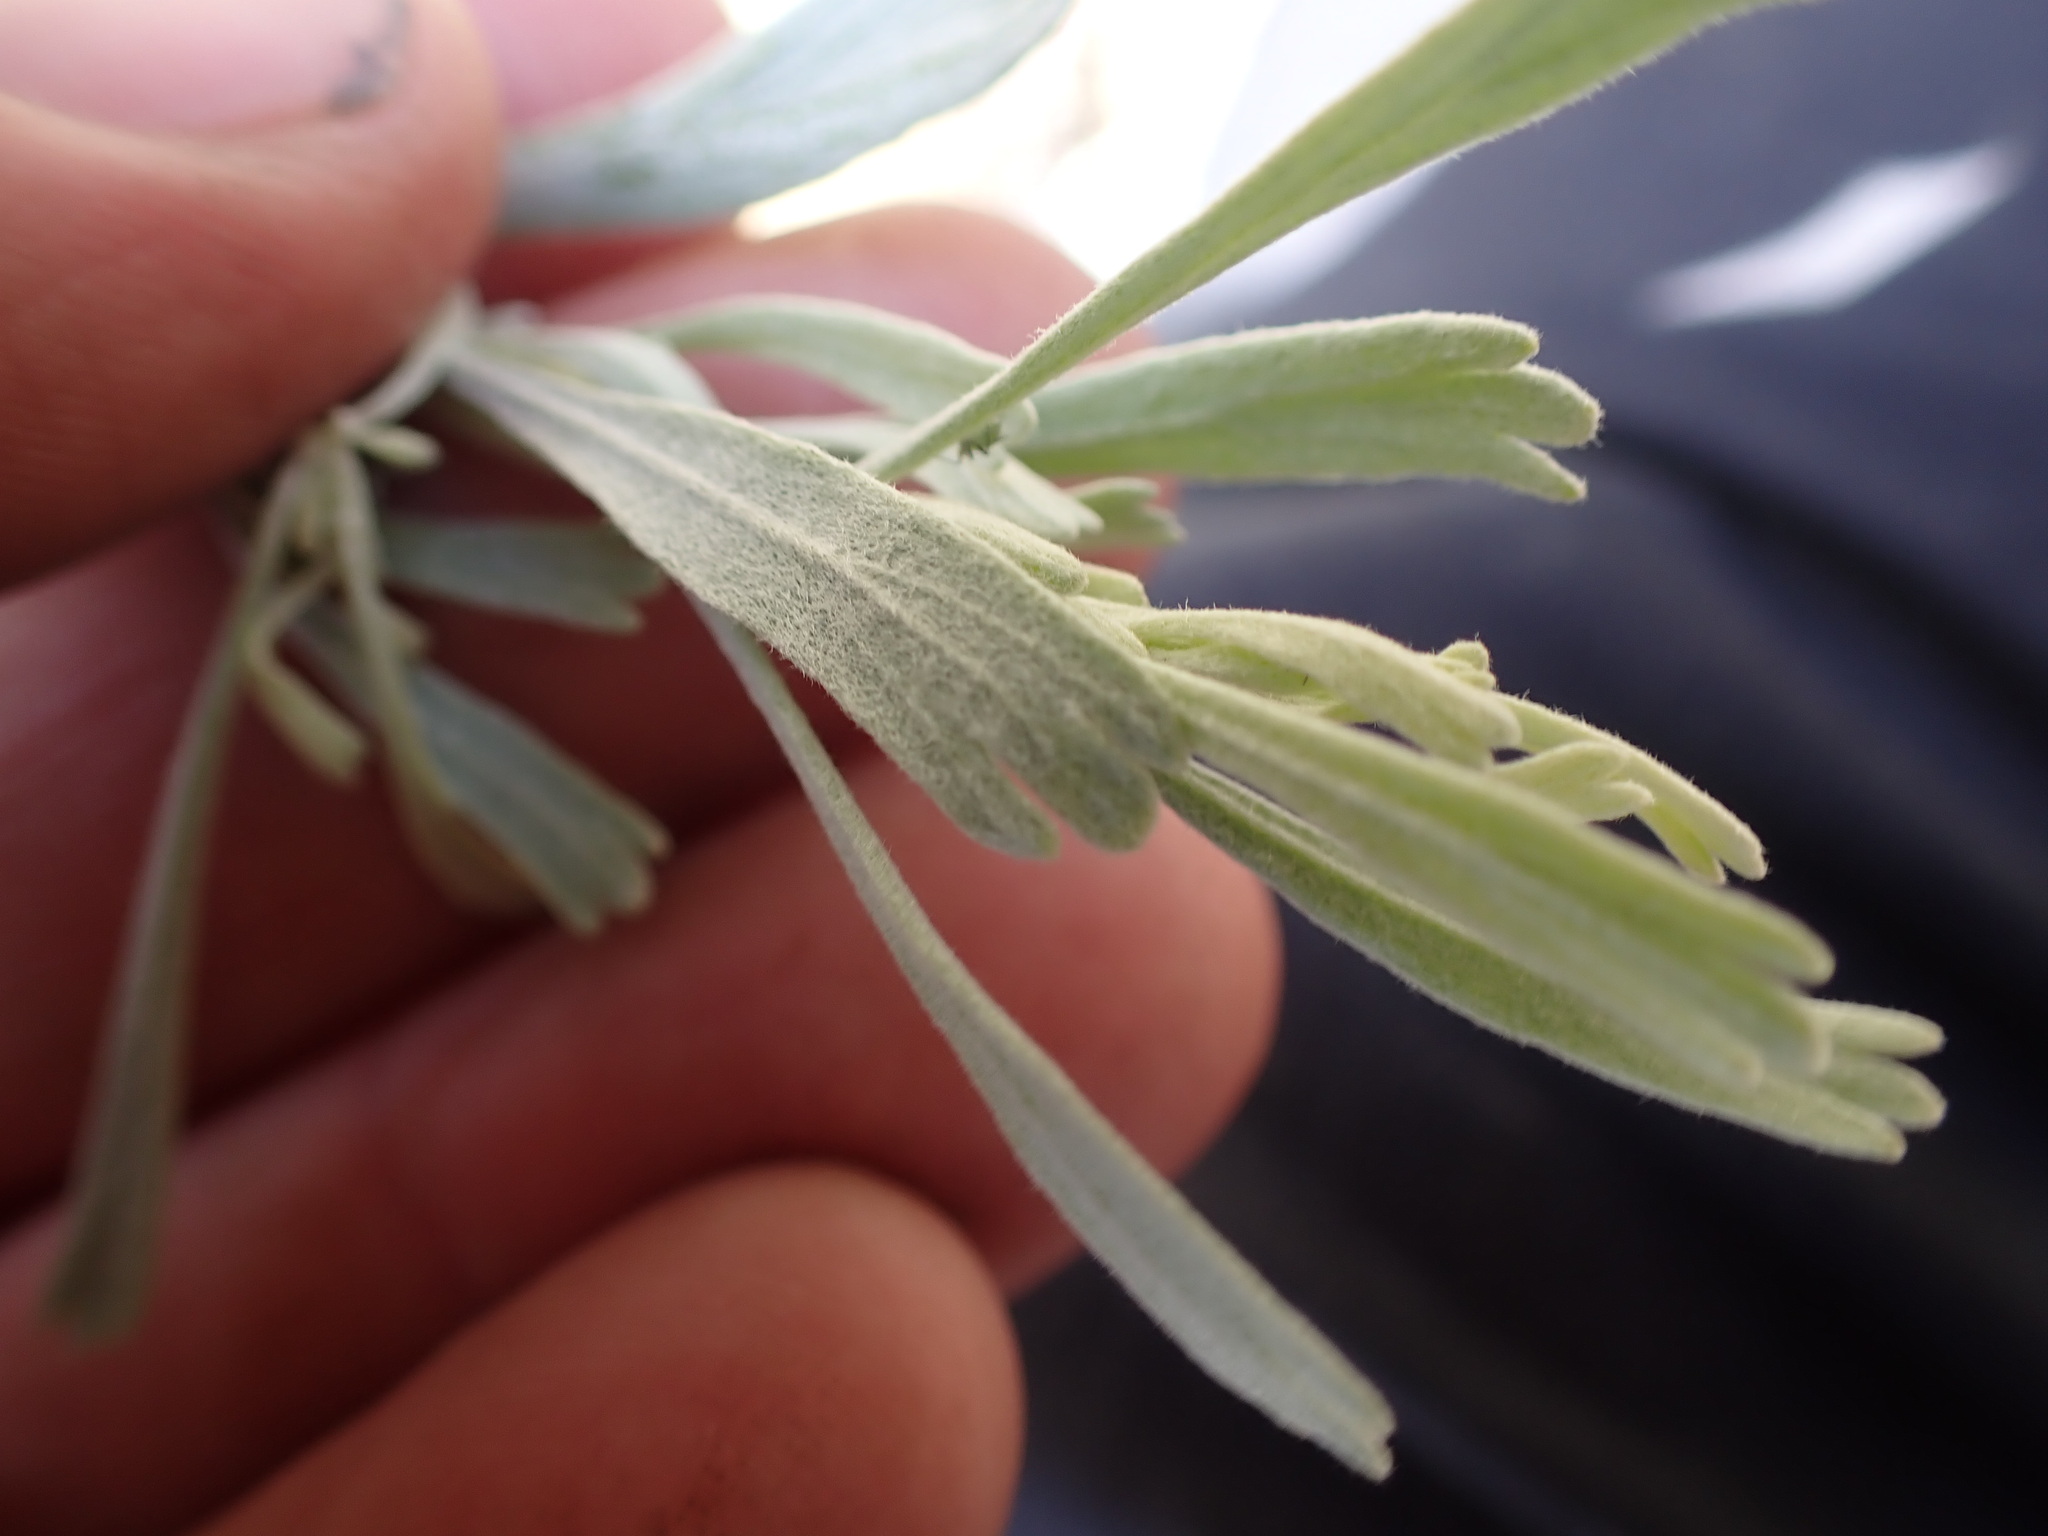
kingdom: Plantae
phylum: Tracheophyta
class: Magnoliopsida
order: Asterales
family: Asteraceae
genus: Artemisia
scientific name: Artemisia tridentata
